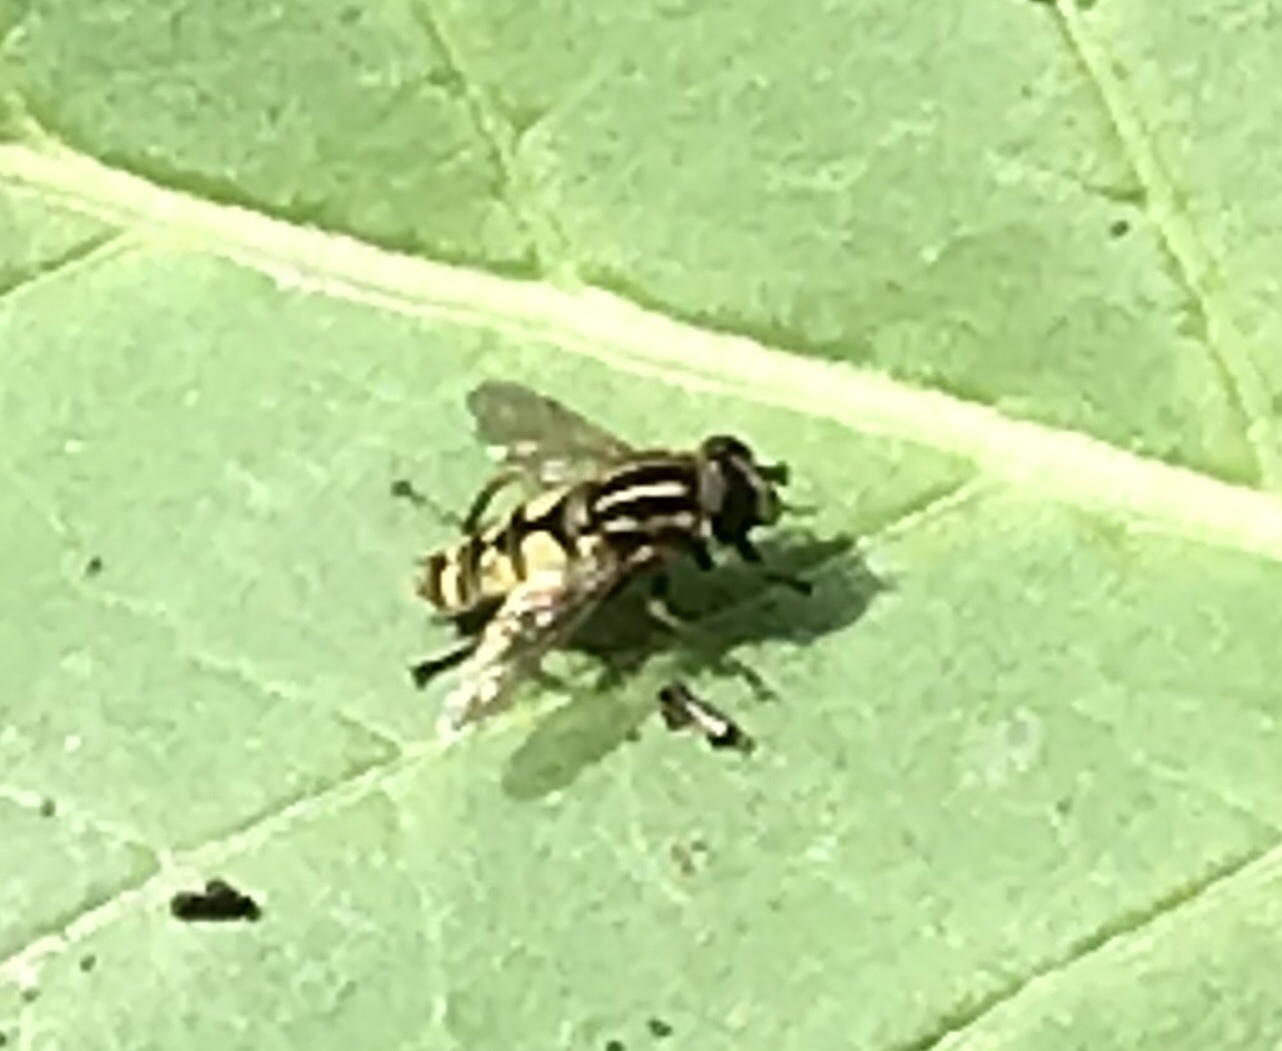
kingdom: Animalia
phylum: Arthropoda
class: Insecta
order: Diptera
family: Syrphidae
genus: Helophilus
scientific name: Helophilus pendulus
